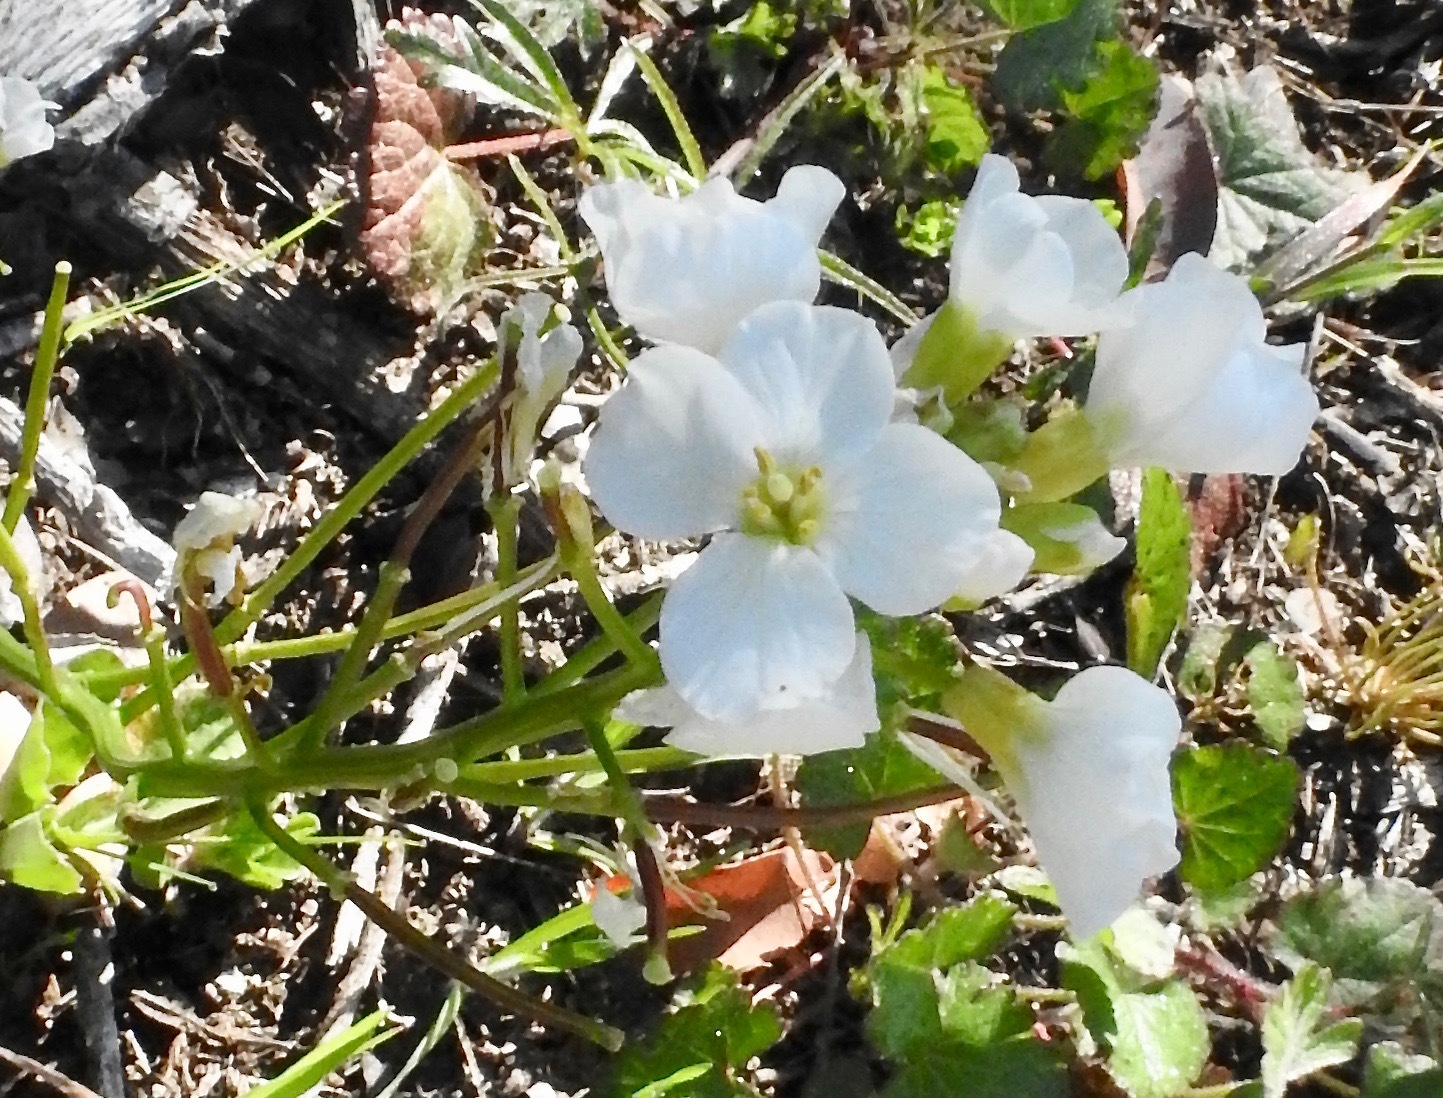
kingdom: Plantae
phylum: Tracheophyta
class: Magnoliopsida
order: Brassicales
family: Brassicaceae
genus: Cardamine
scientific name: Cardamine californica
